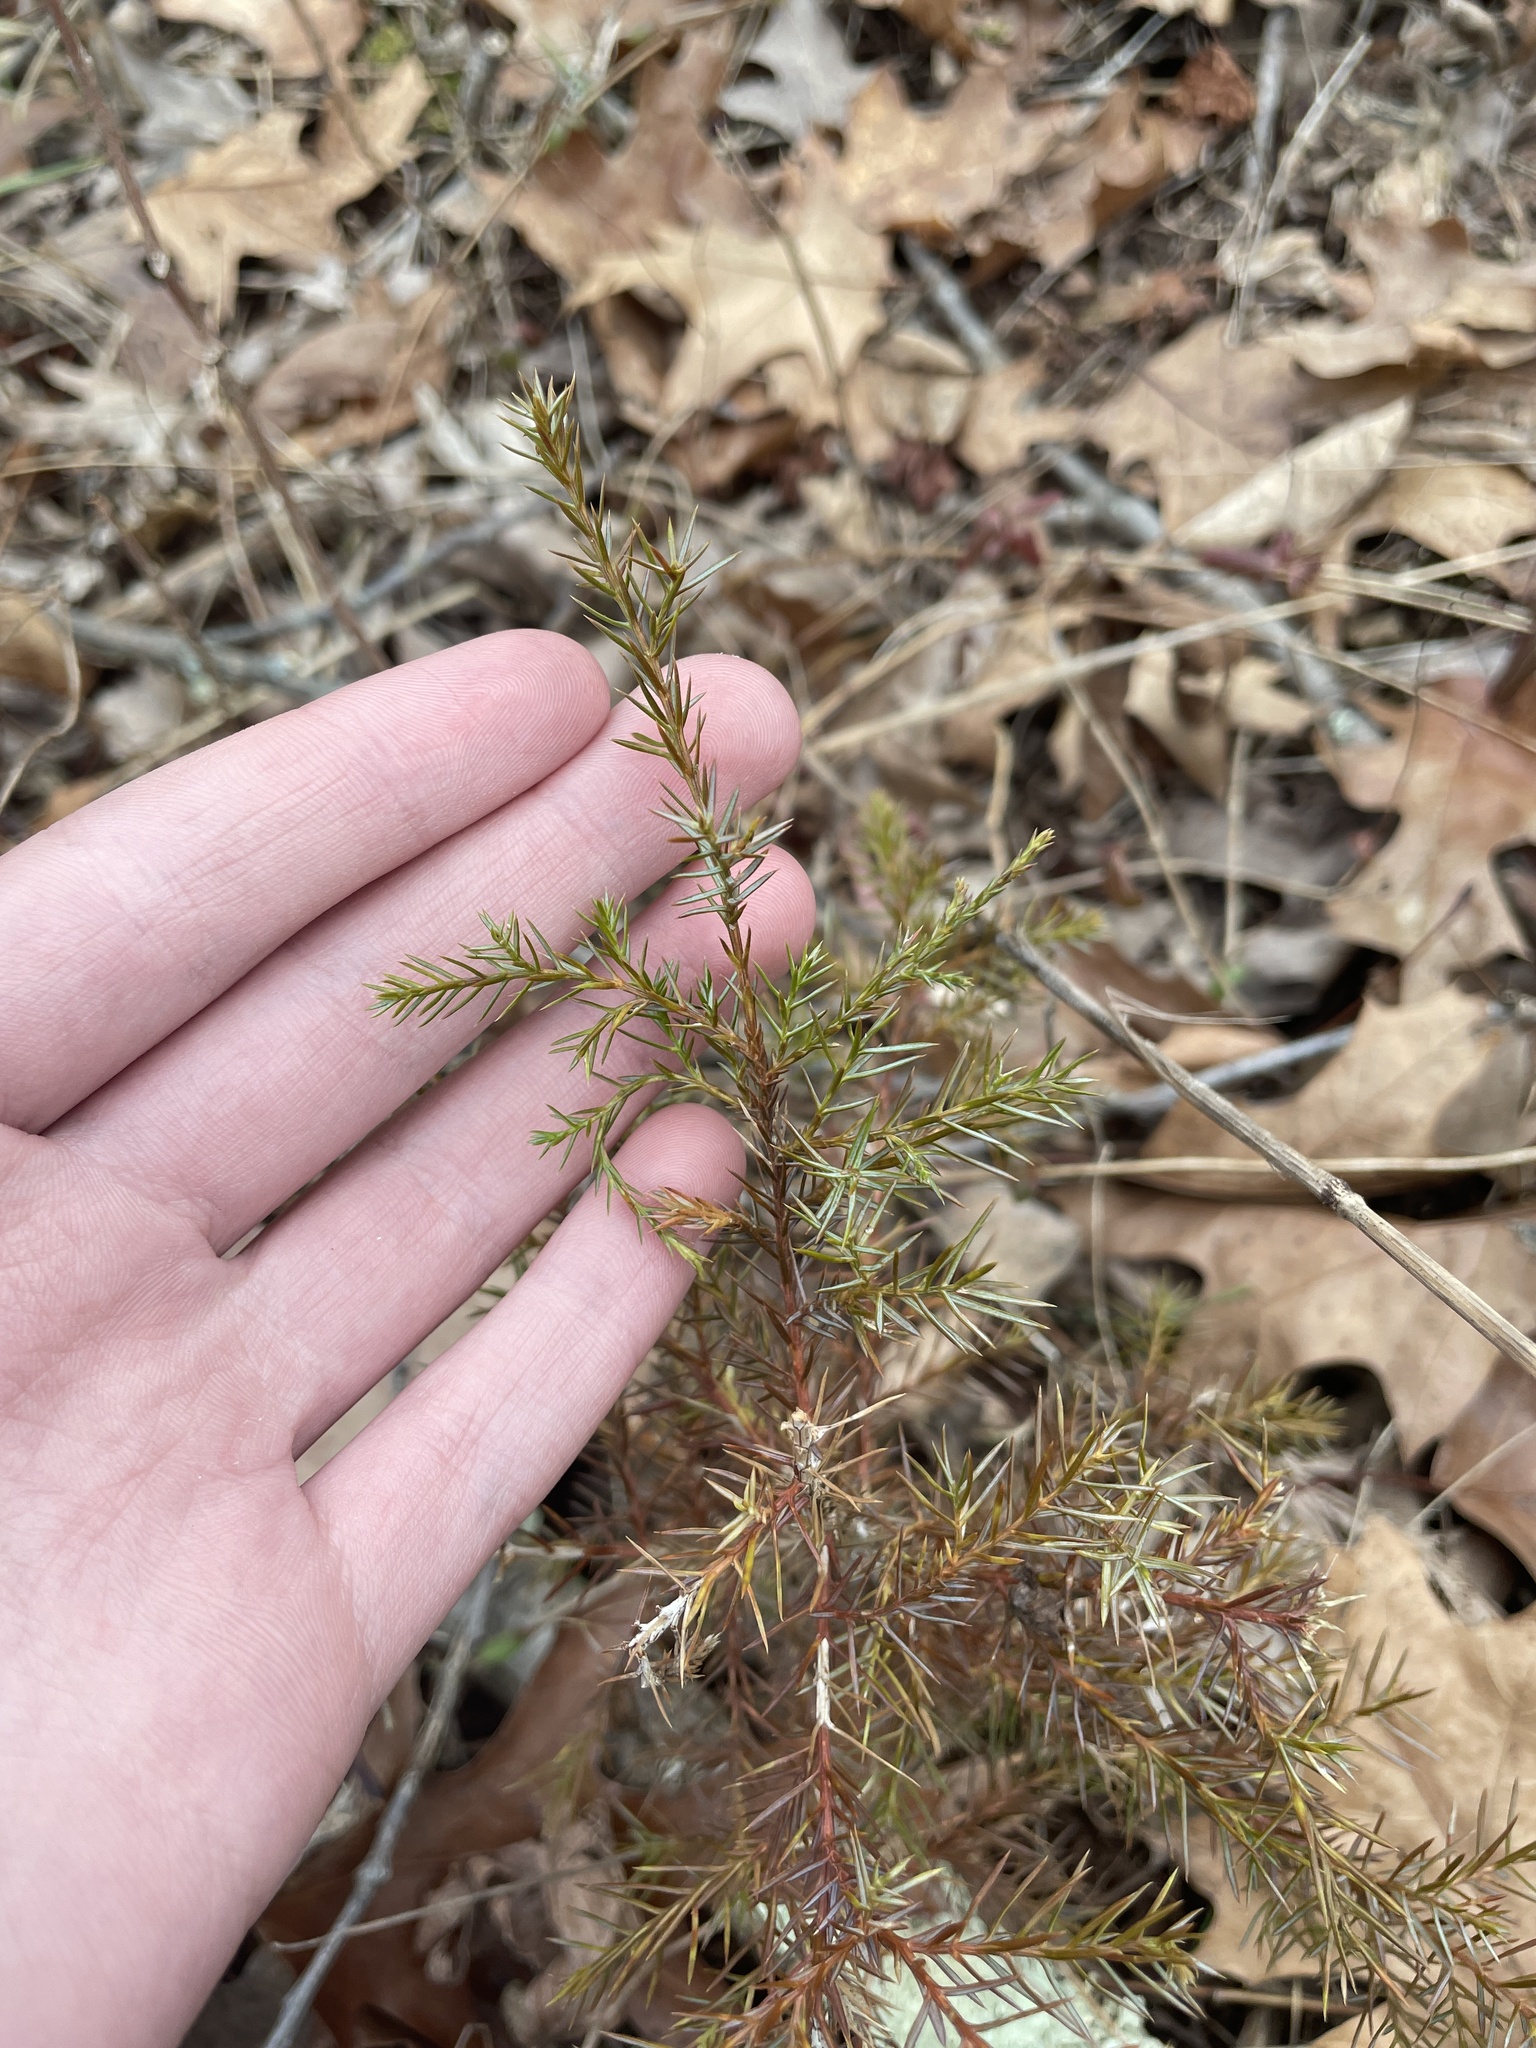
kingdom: Plantae
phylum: Tracheophyta
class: Pinopsida
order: Pinales
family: Cupressaceae
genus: Juniperus
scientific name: Juniperus virginiana
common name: Red juniper
